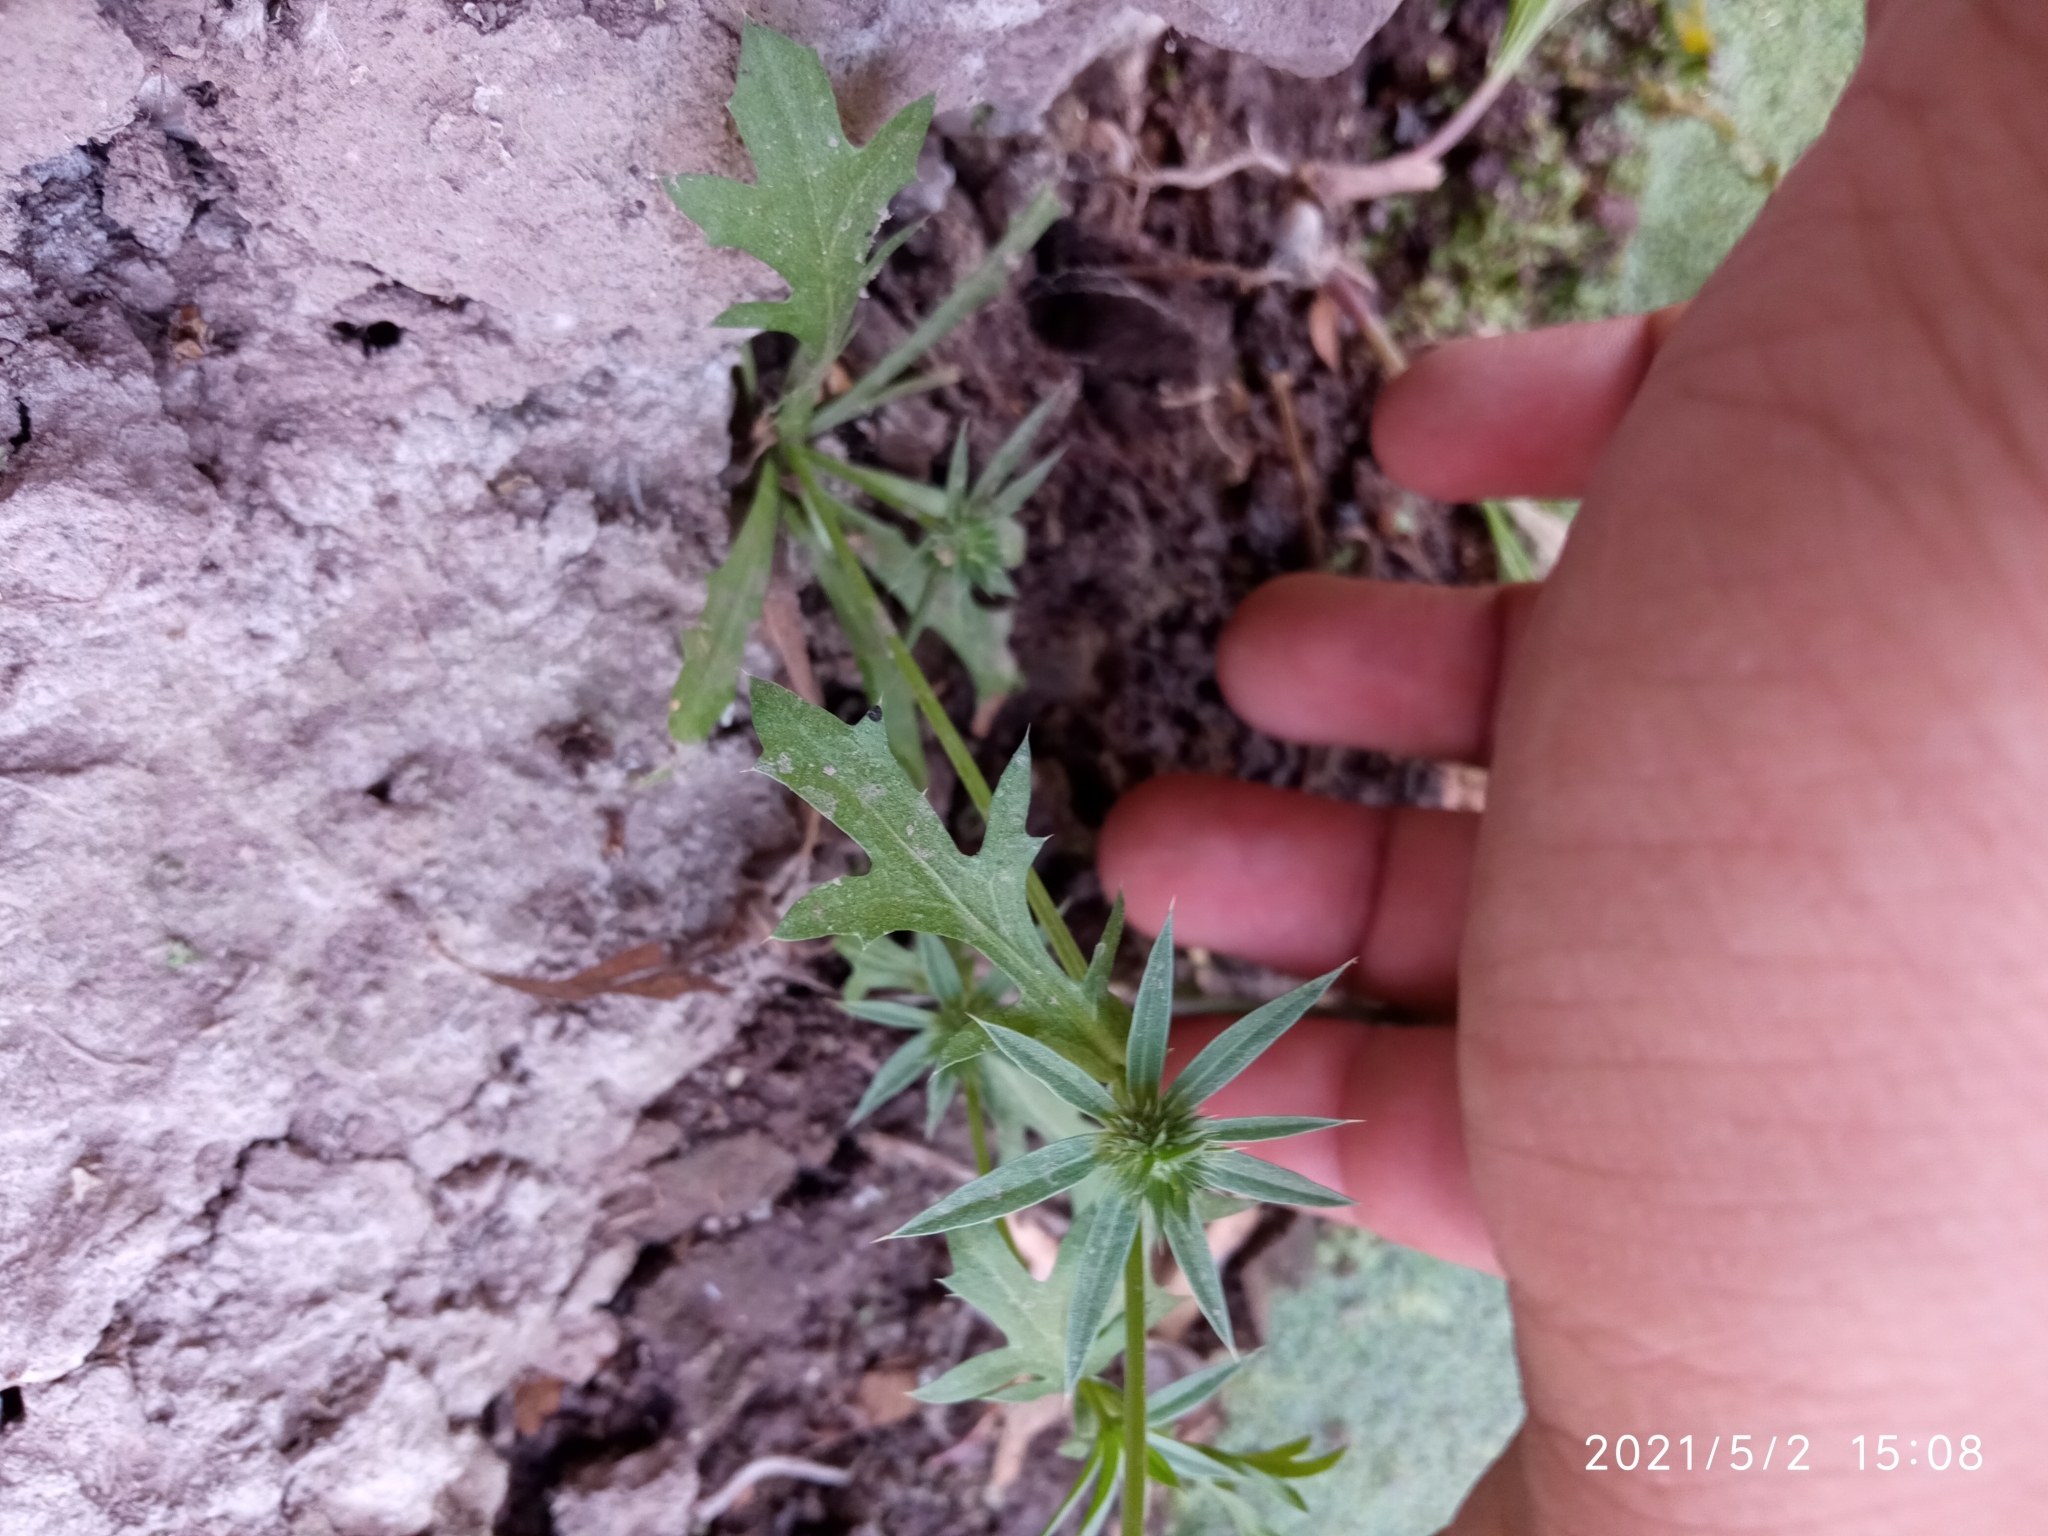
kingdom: Plantae
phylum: Tracheophyta
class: Magnoliopsida
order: Apiales
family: Apiaceae
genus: Eryngium
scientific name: Eryngium nasturtiifolium
